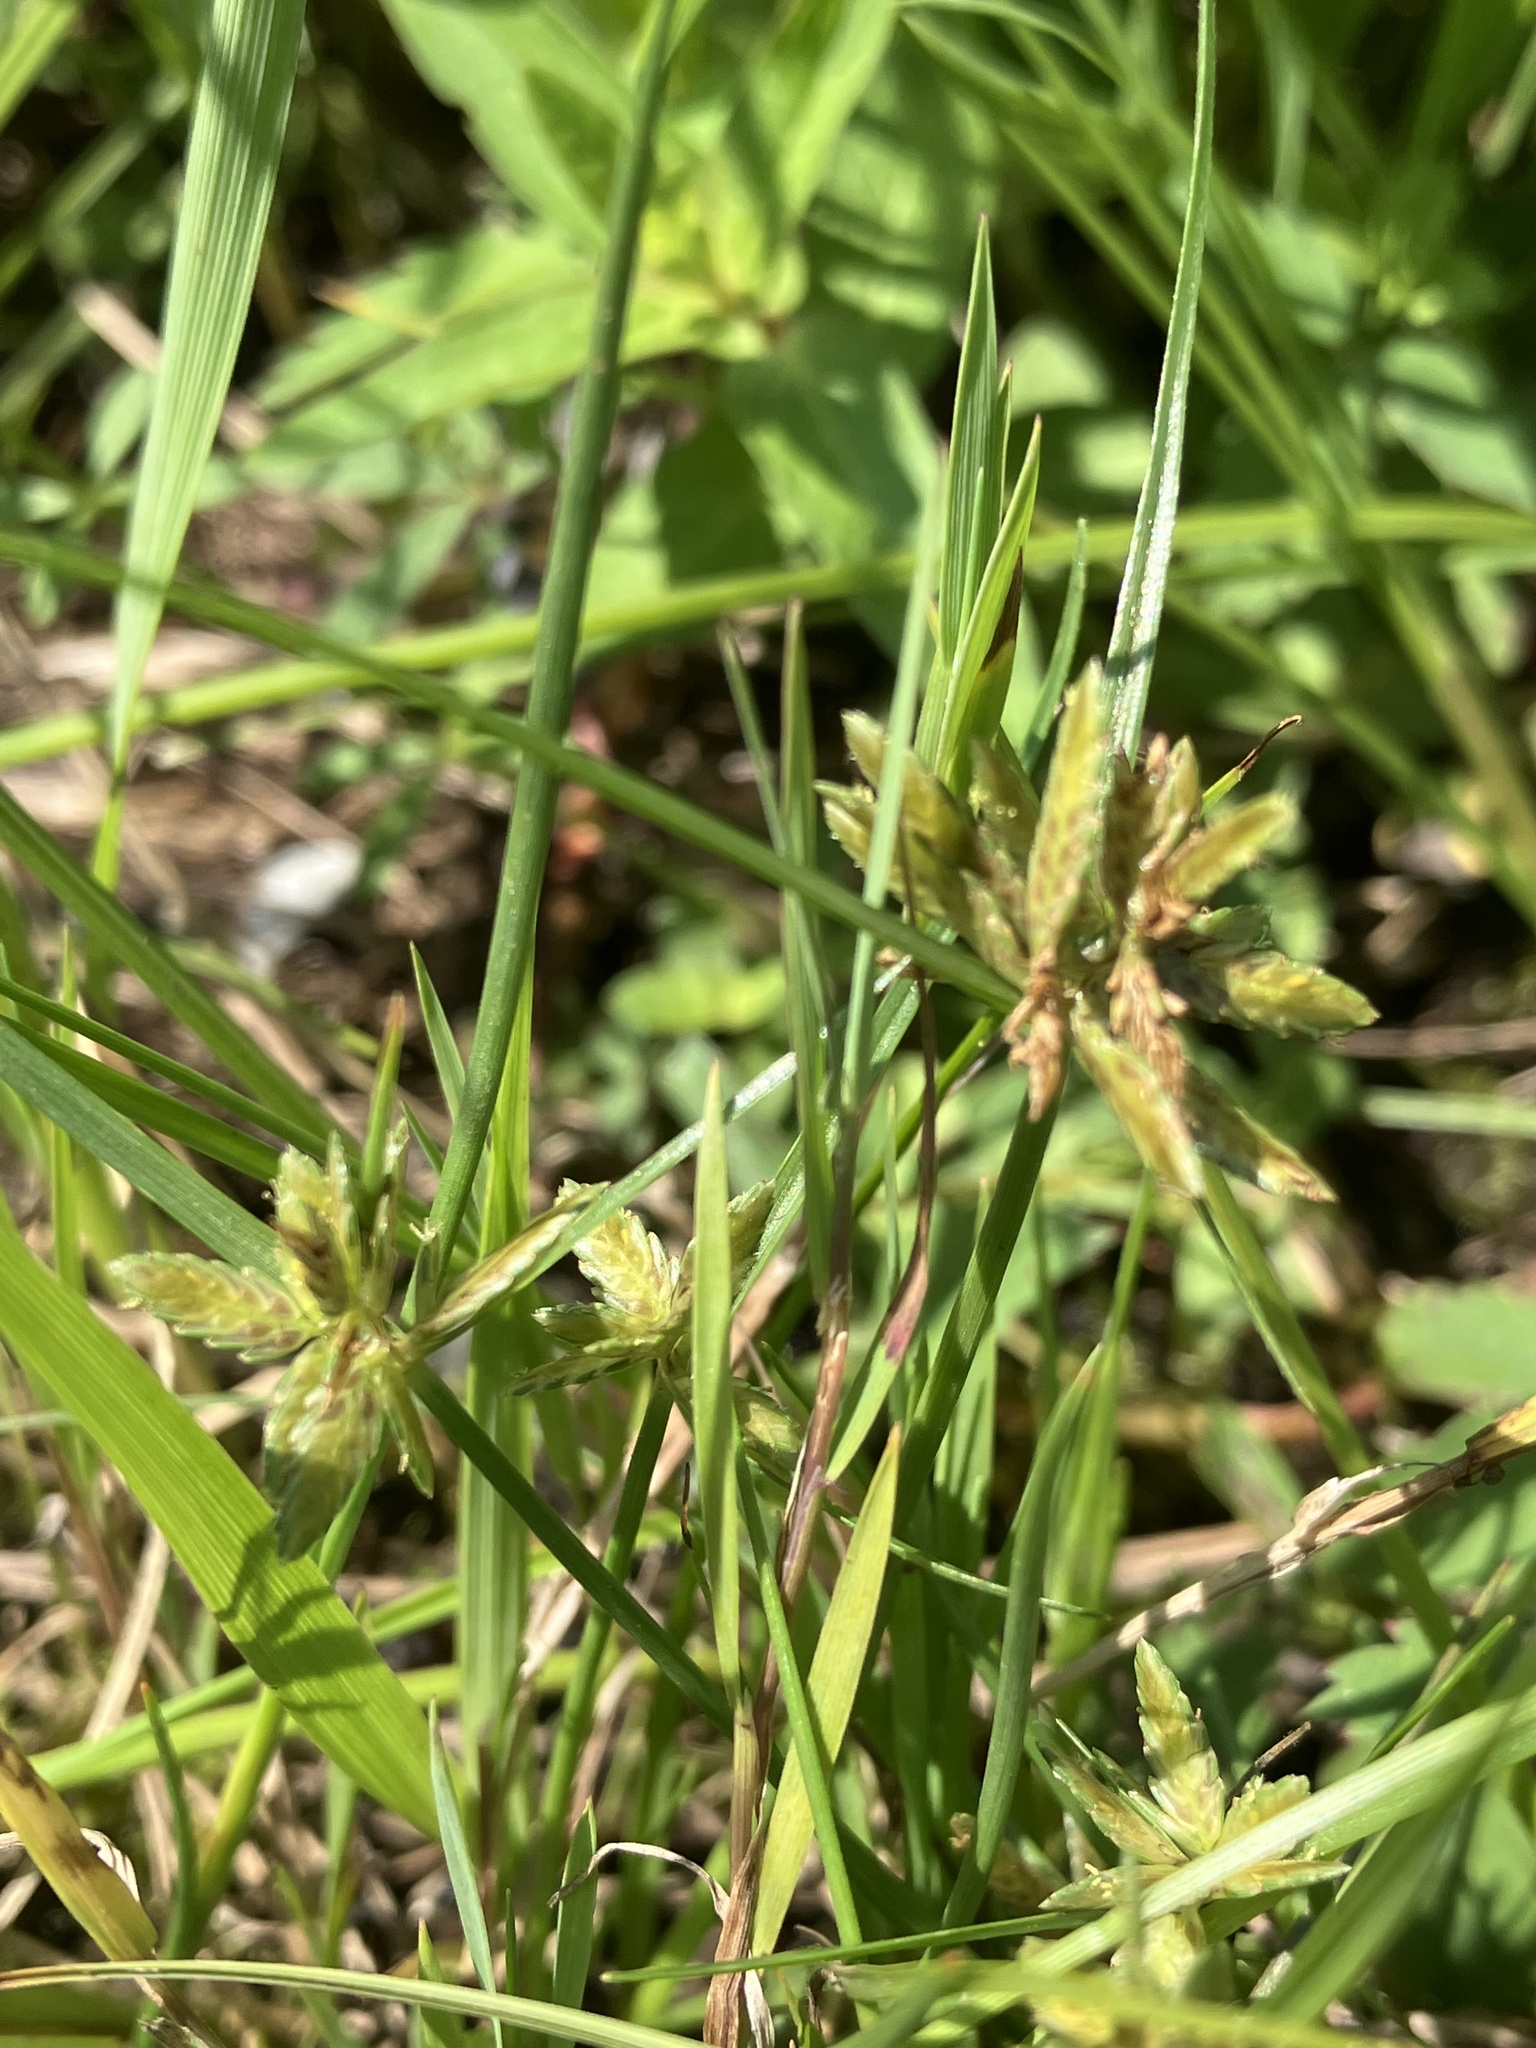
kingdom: Plantae
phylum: Tracheophyta
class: Liliopsida
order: Poales
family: Cyperaceae
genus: Cyperus
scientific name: Cyperus flavescens
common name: Yellow galingale
